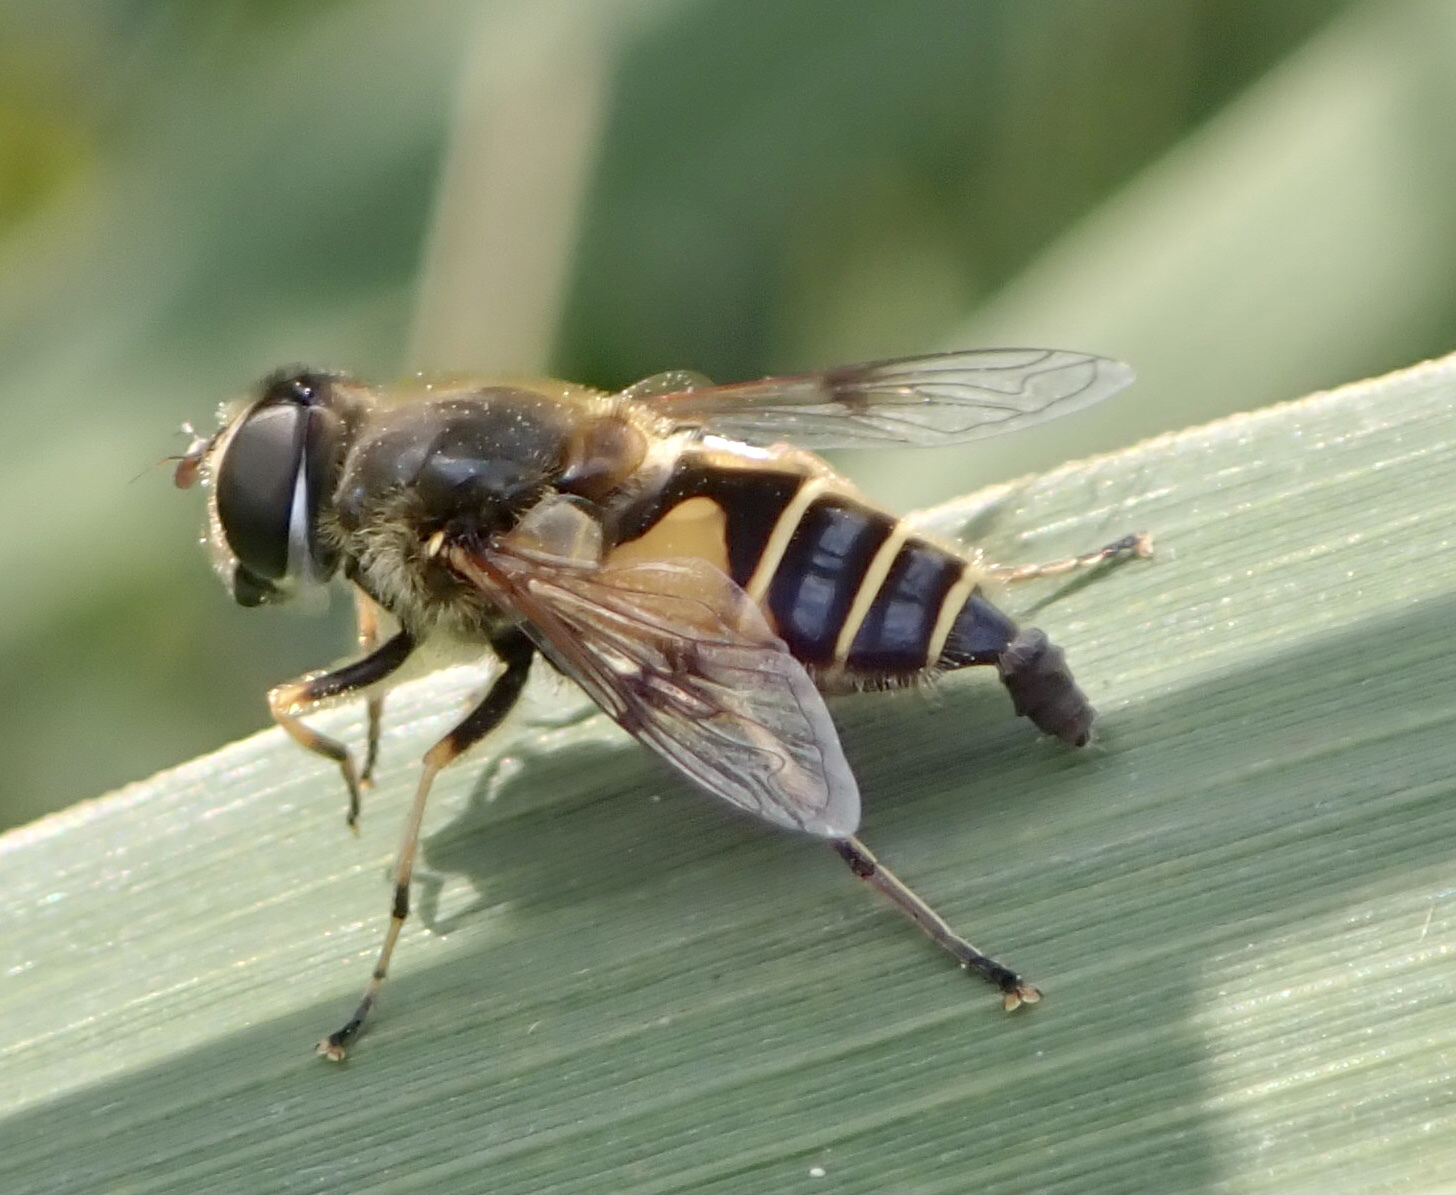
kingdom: Animalia
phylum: Arthropoda
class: Insecta
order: Diptera
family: Syrphidae
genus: Cheilosia
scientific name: Cheilosia morio
